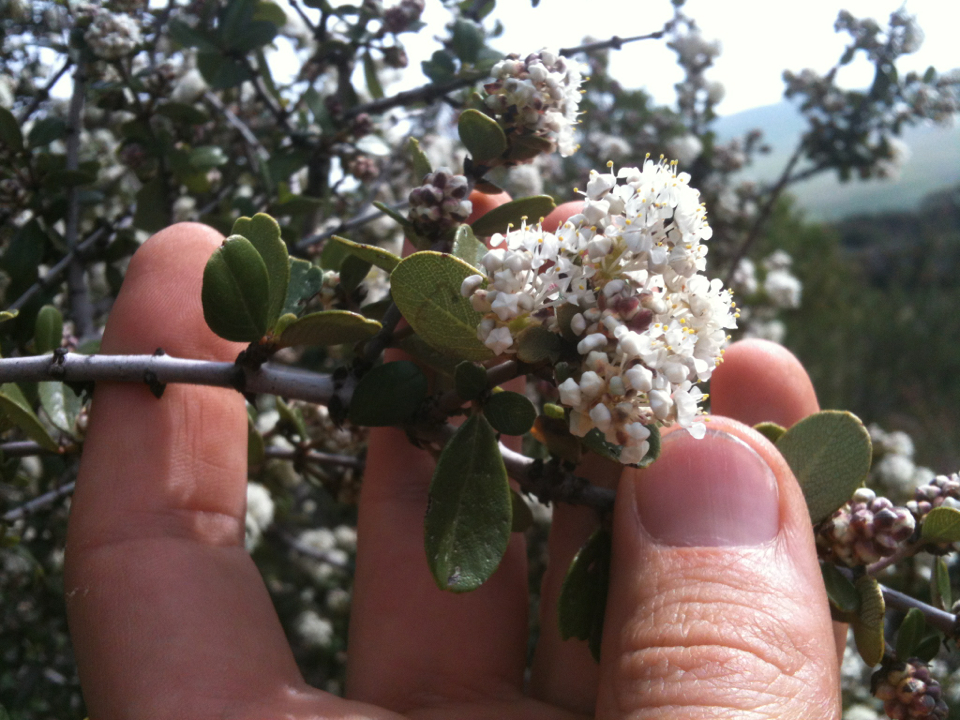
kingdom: Plantae
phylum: Tracheophyta
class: Magnoliopsida
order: Rosales
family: Rhamnaceae
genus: Ceanothus
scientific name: Ceanothus cuneatus
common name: Cuneate ceanothus
